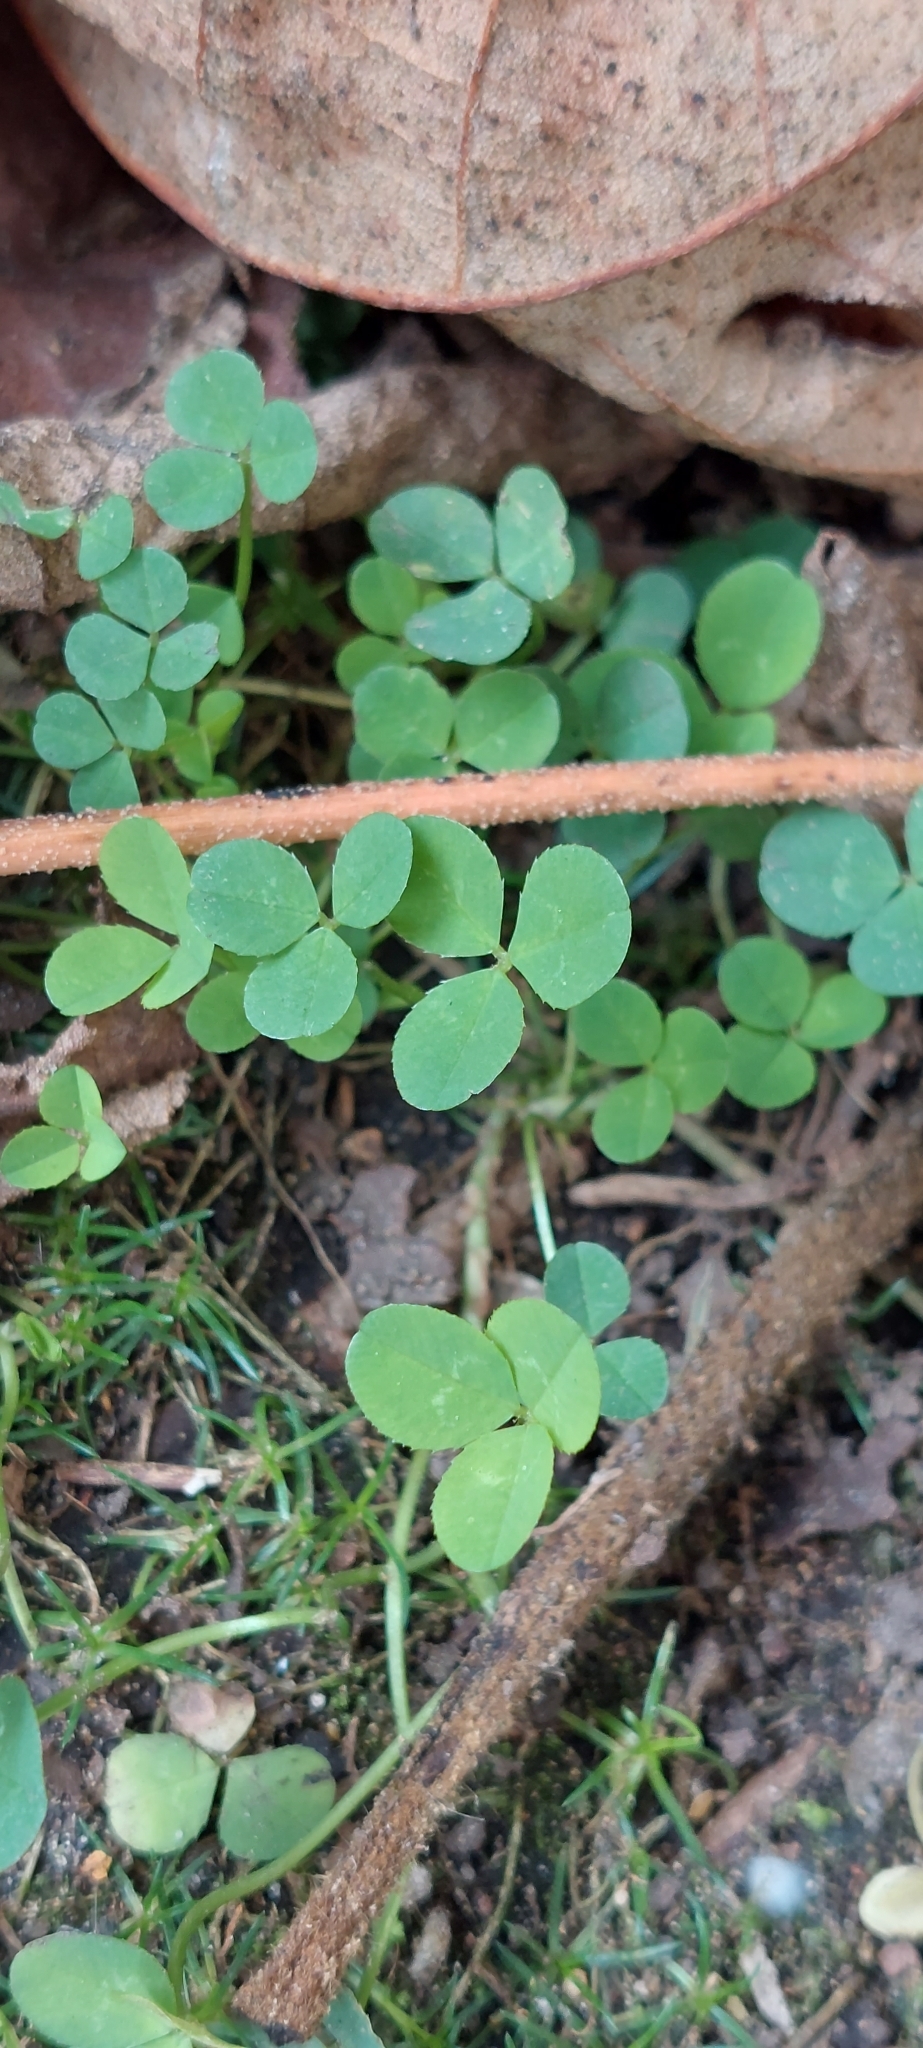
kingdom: Plantae
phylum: Tracheophyta
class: Magnoliopsida
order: Fabales
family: Fabaceae
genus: Trifolium
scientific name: Trifolium repens
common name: White clover
